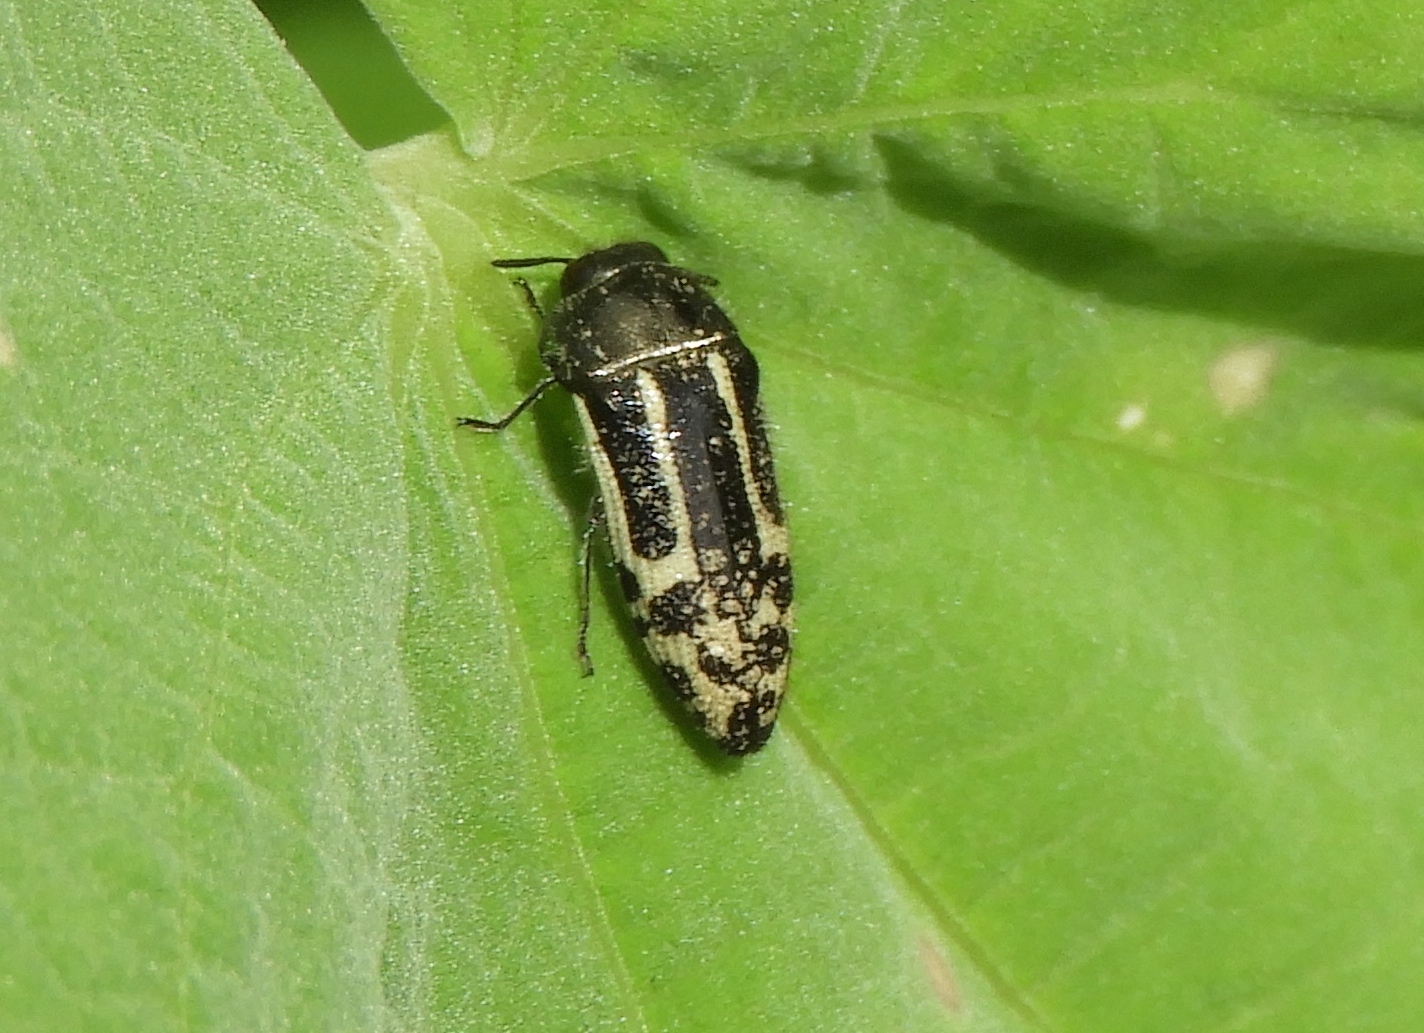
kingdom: Animalia
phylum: Arthropoda
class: Insecta
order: Coleoptera
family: Buprestidae
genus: Acmaeodera
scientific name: Acmaeodera scalaris
